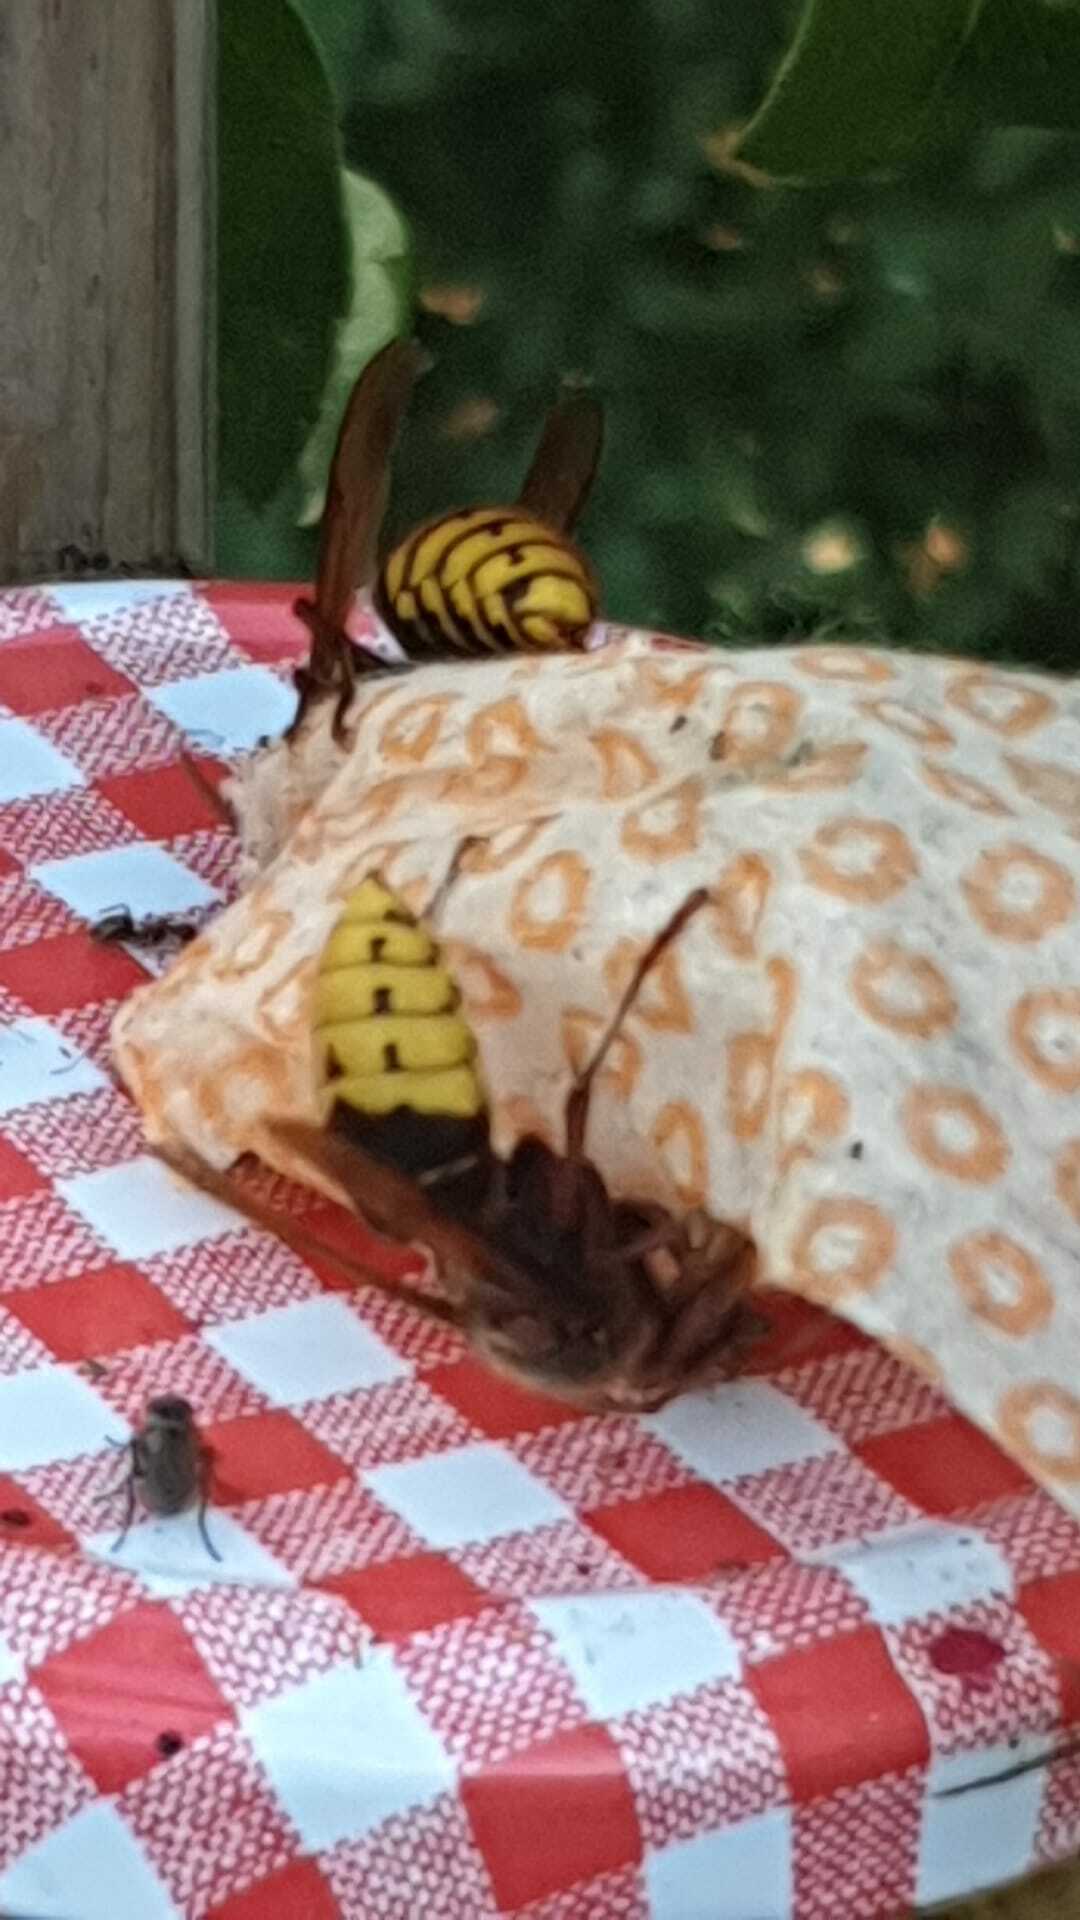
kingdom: Animalia
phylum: Arthropoda
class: Insecta
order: Hymenoptera
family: Vespidae
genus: Vespa
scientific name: Vespa crabro
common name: Hornet
